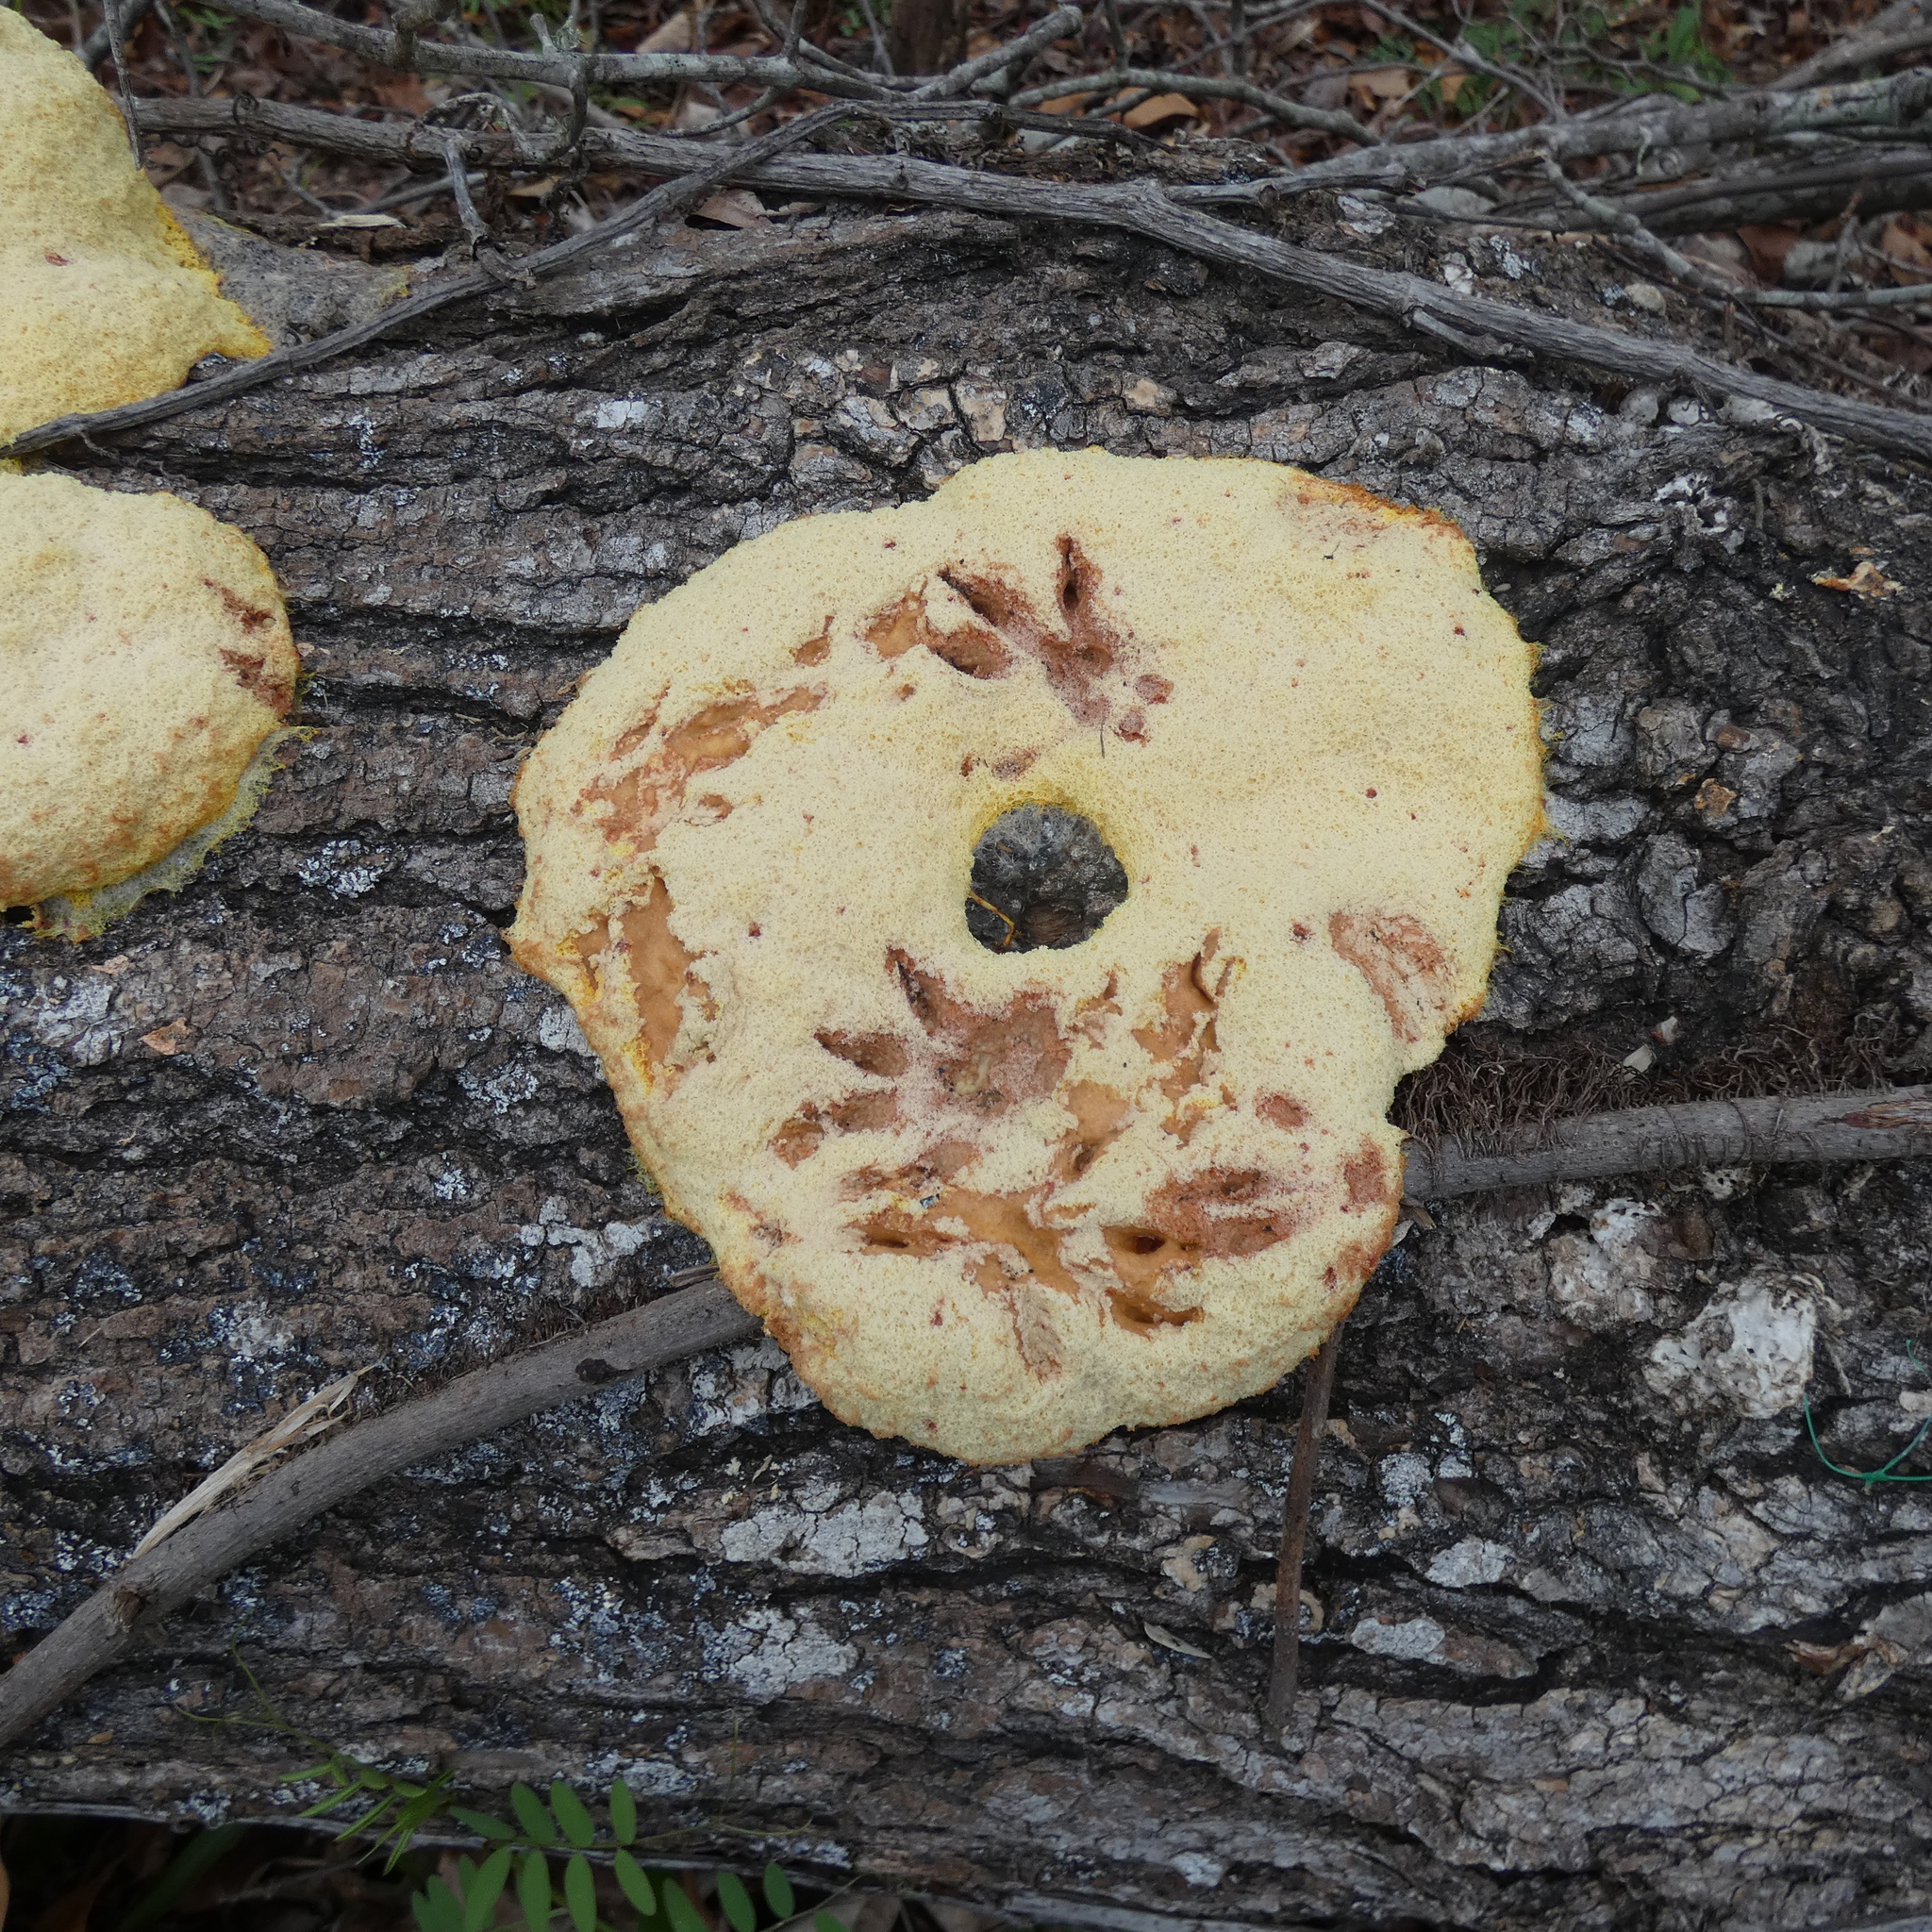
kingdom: Animalia
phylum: Chordata
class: Mammalia
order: Rodentia
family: Sciuridae
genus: Sciurus
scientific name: Sciurus carolinensis
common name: Eastern gray squirrel
